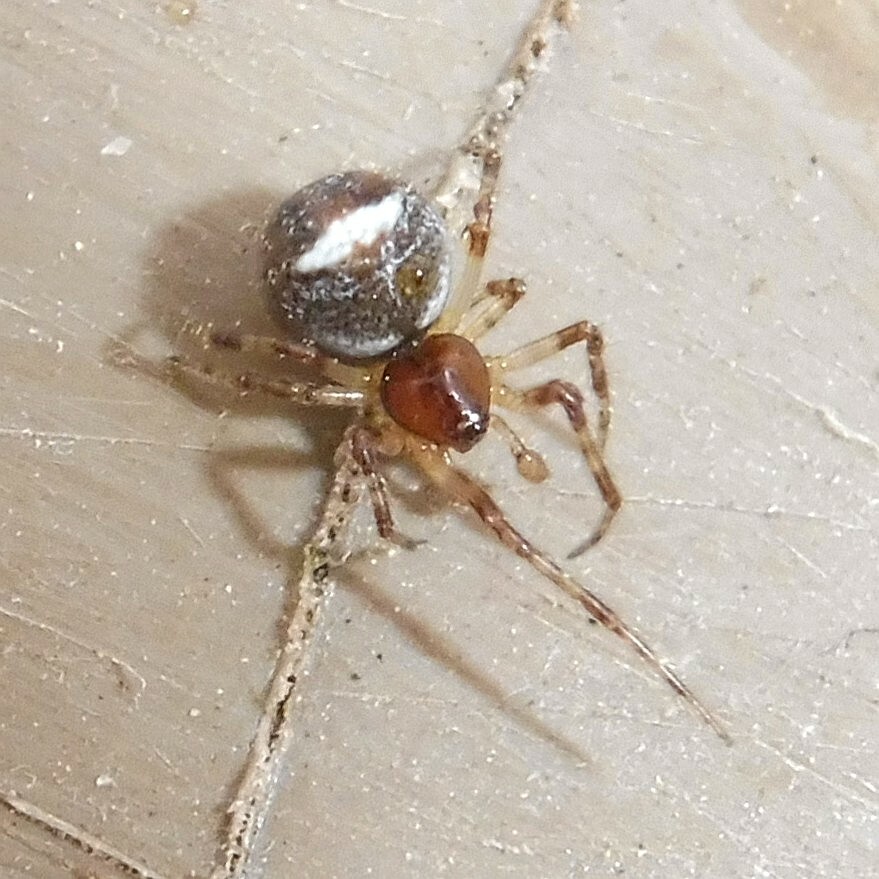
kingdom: Animalia
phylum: Arthropoda
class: Arachnida
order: Araneae
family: Theridiidae
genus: Simitidion
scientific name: Simitidion simile
